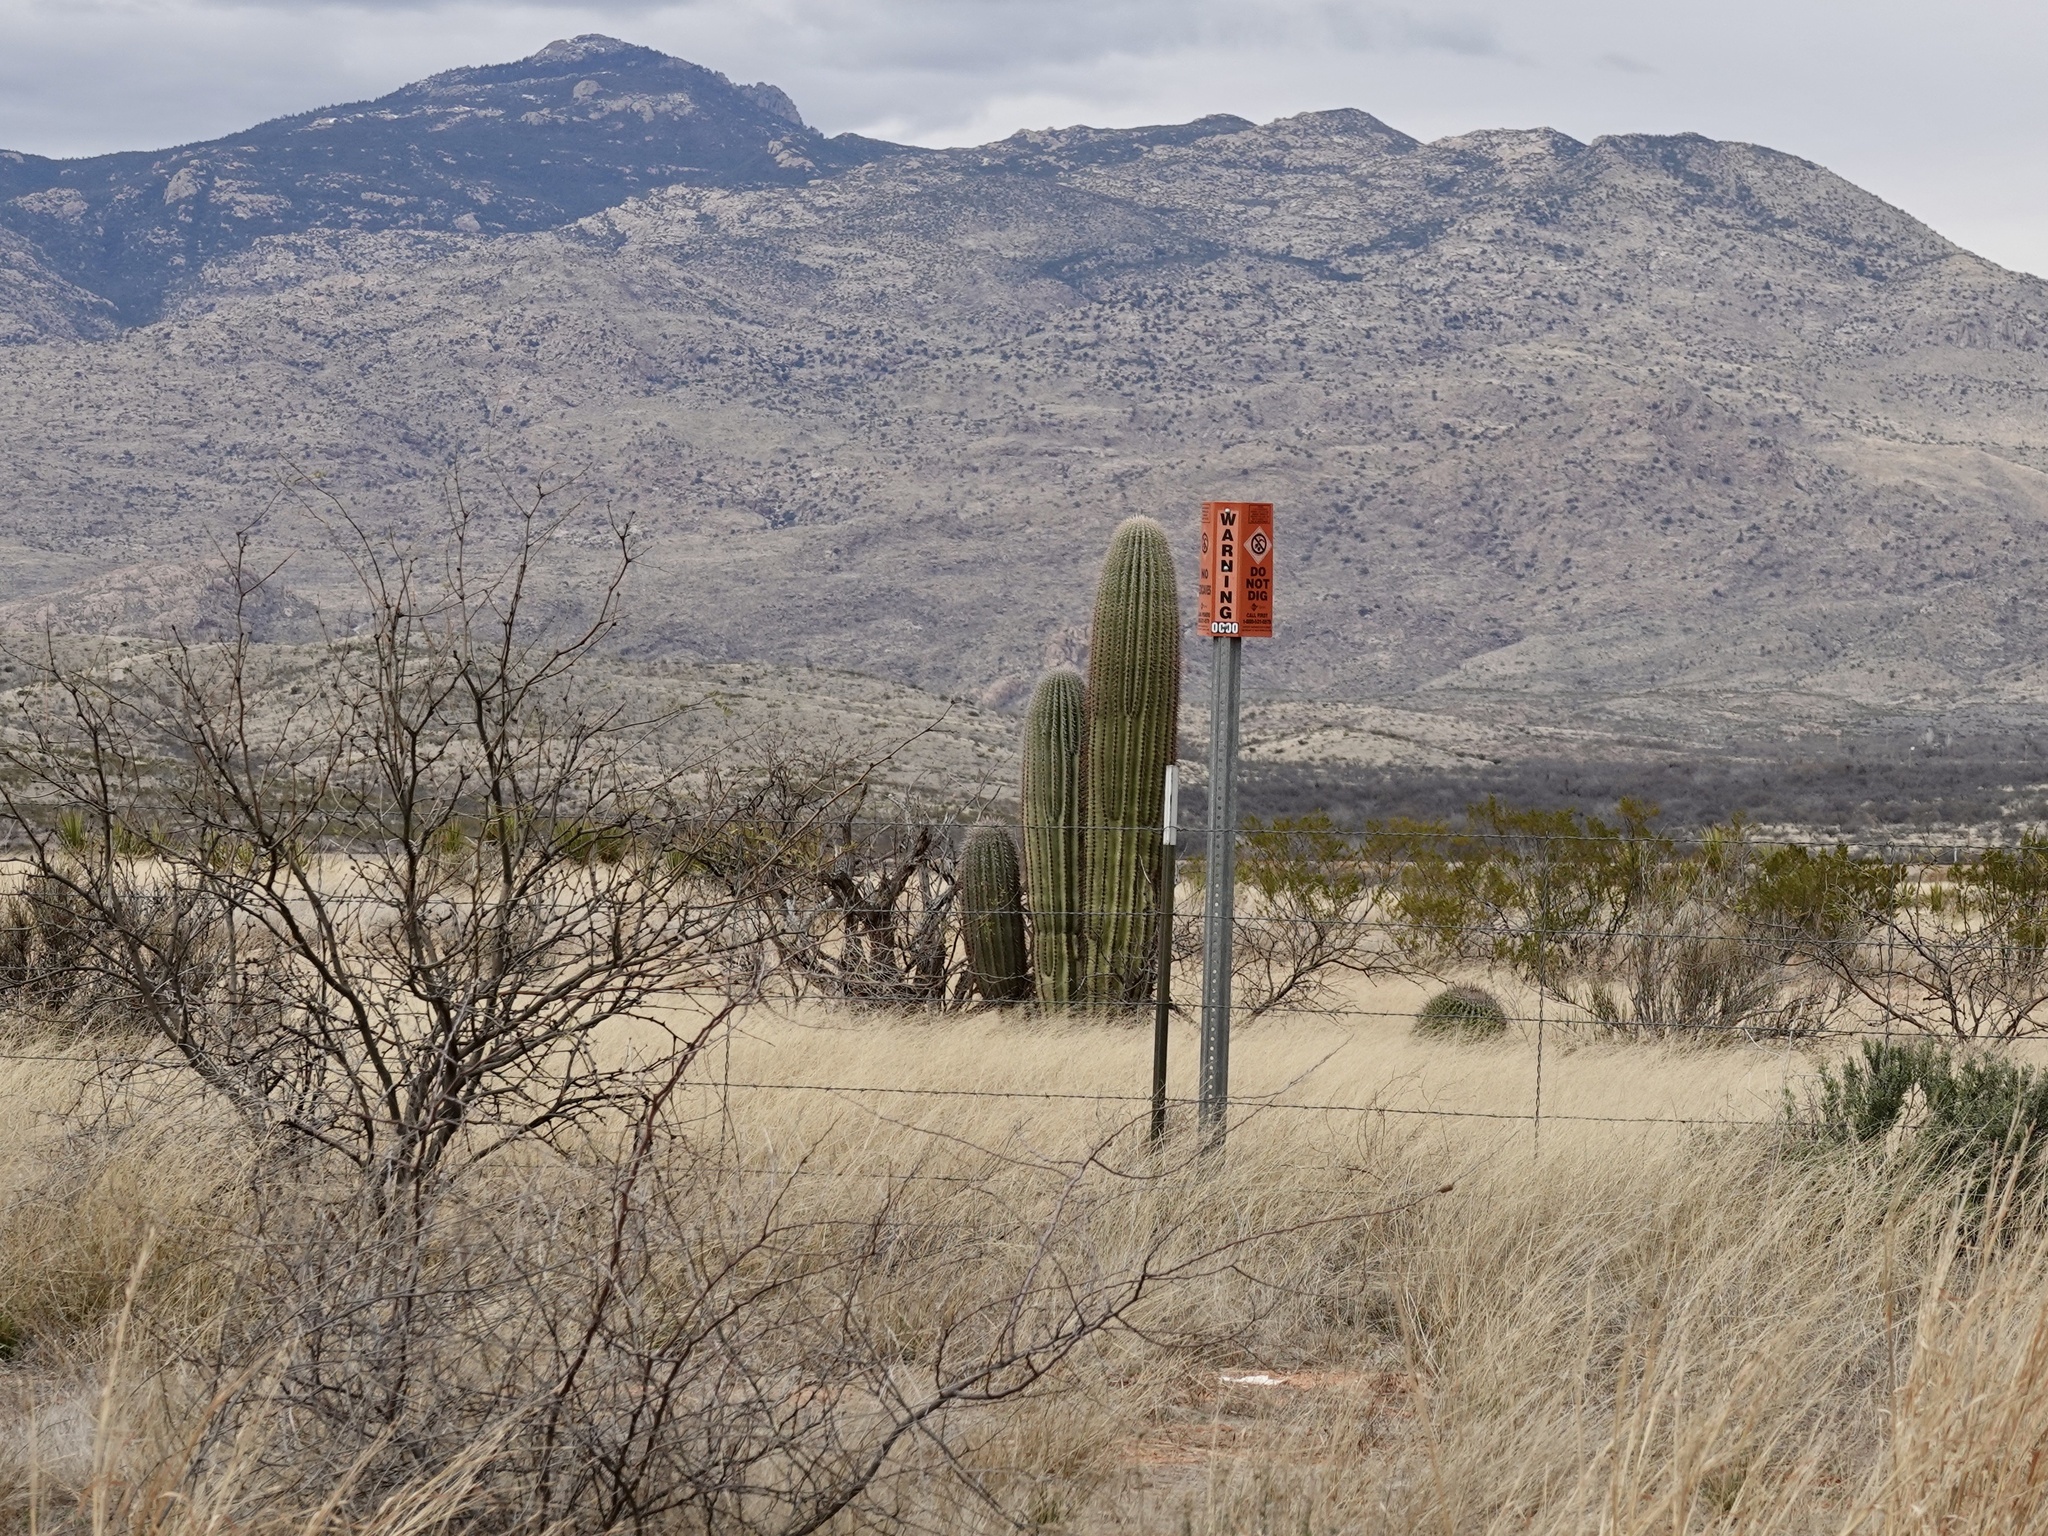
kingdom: Plantae
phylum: Tracheophyta
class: Magnoliopsida
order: Caryophyllales
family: Cactaceae
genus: Carnegiea
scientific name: Carnegiea gigantea
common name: Saguaro
